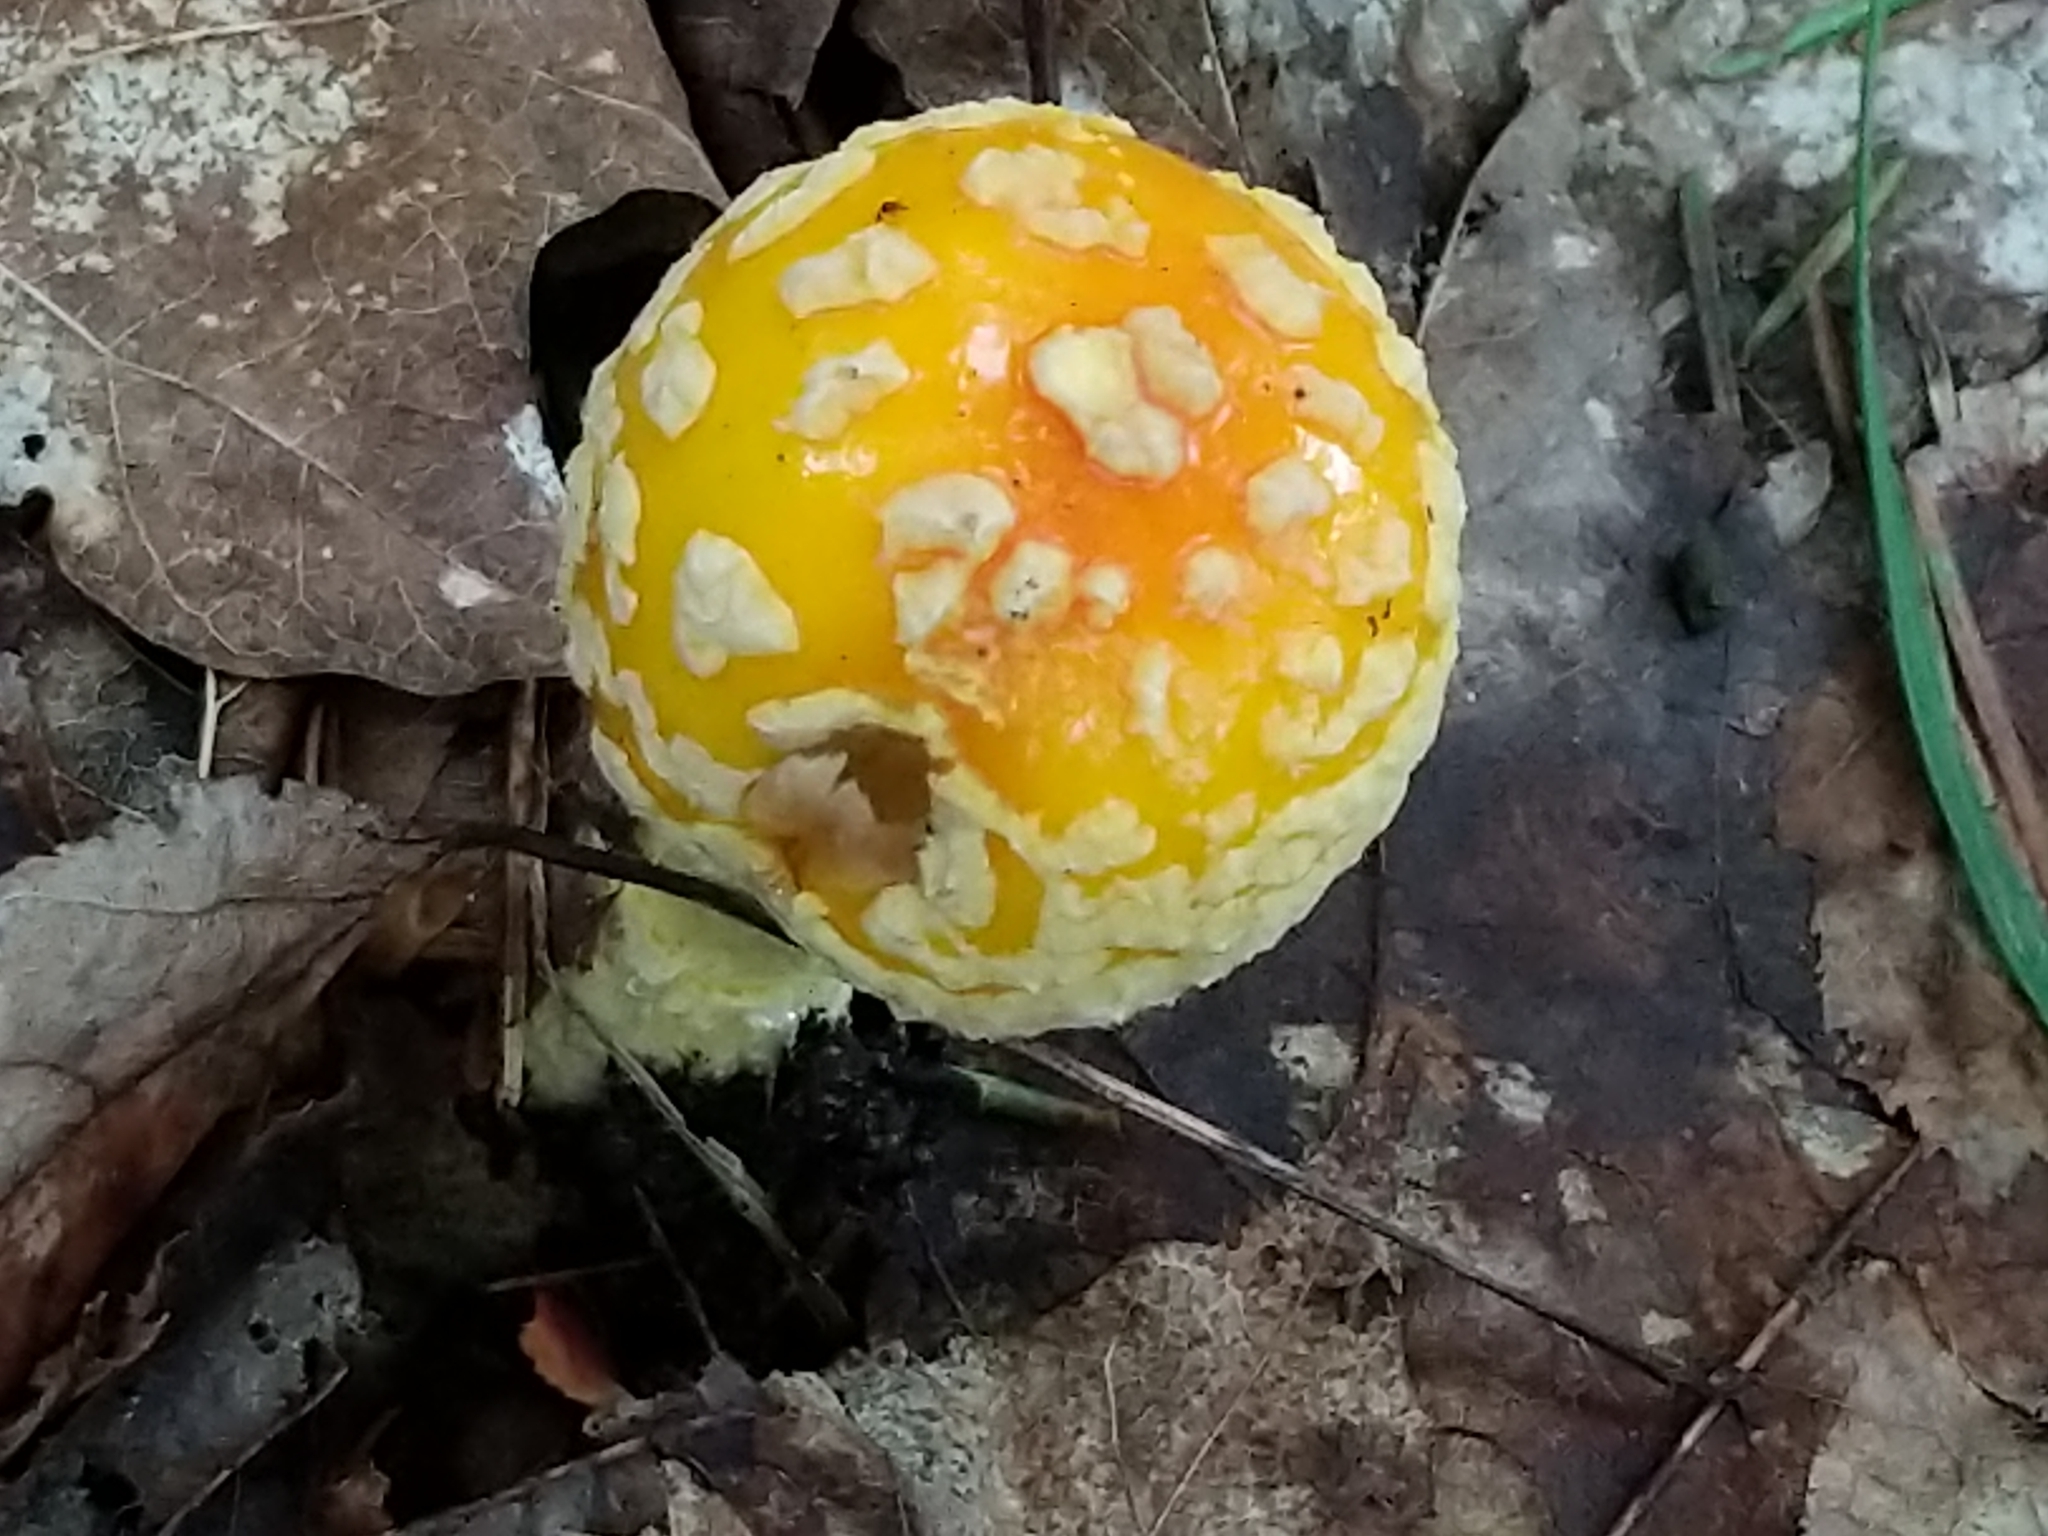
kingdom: Fungi
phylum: Basidiomycota
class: Agaricomycetes
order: Agaricales
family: Amanitaceae
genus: Amanita
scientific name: Amanita muscaria
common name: Fly agaric
